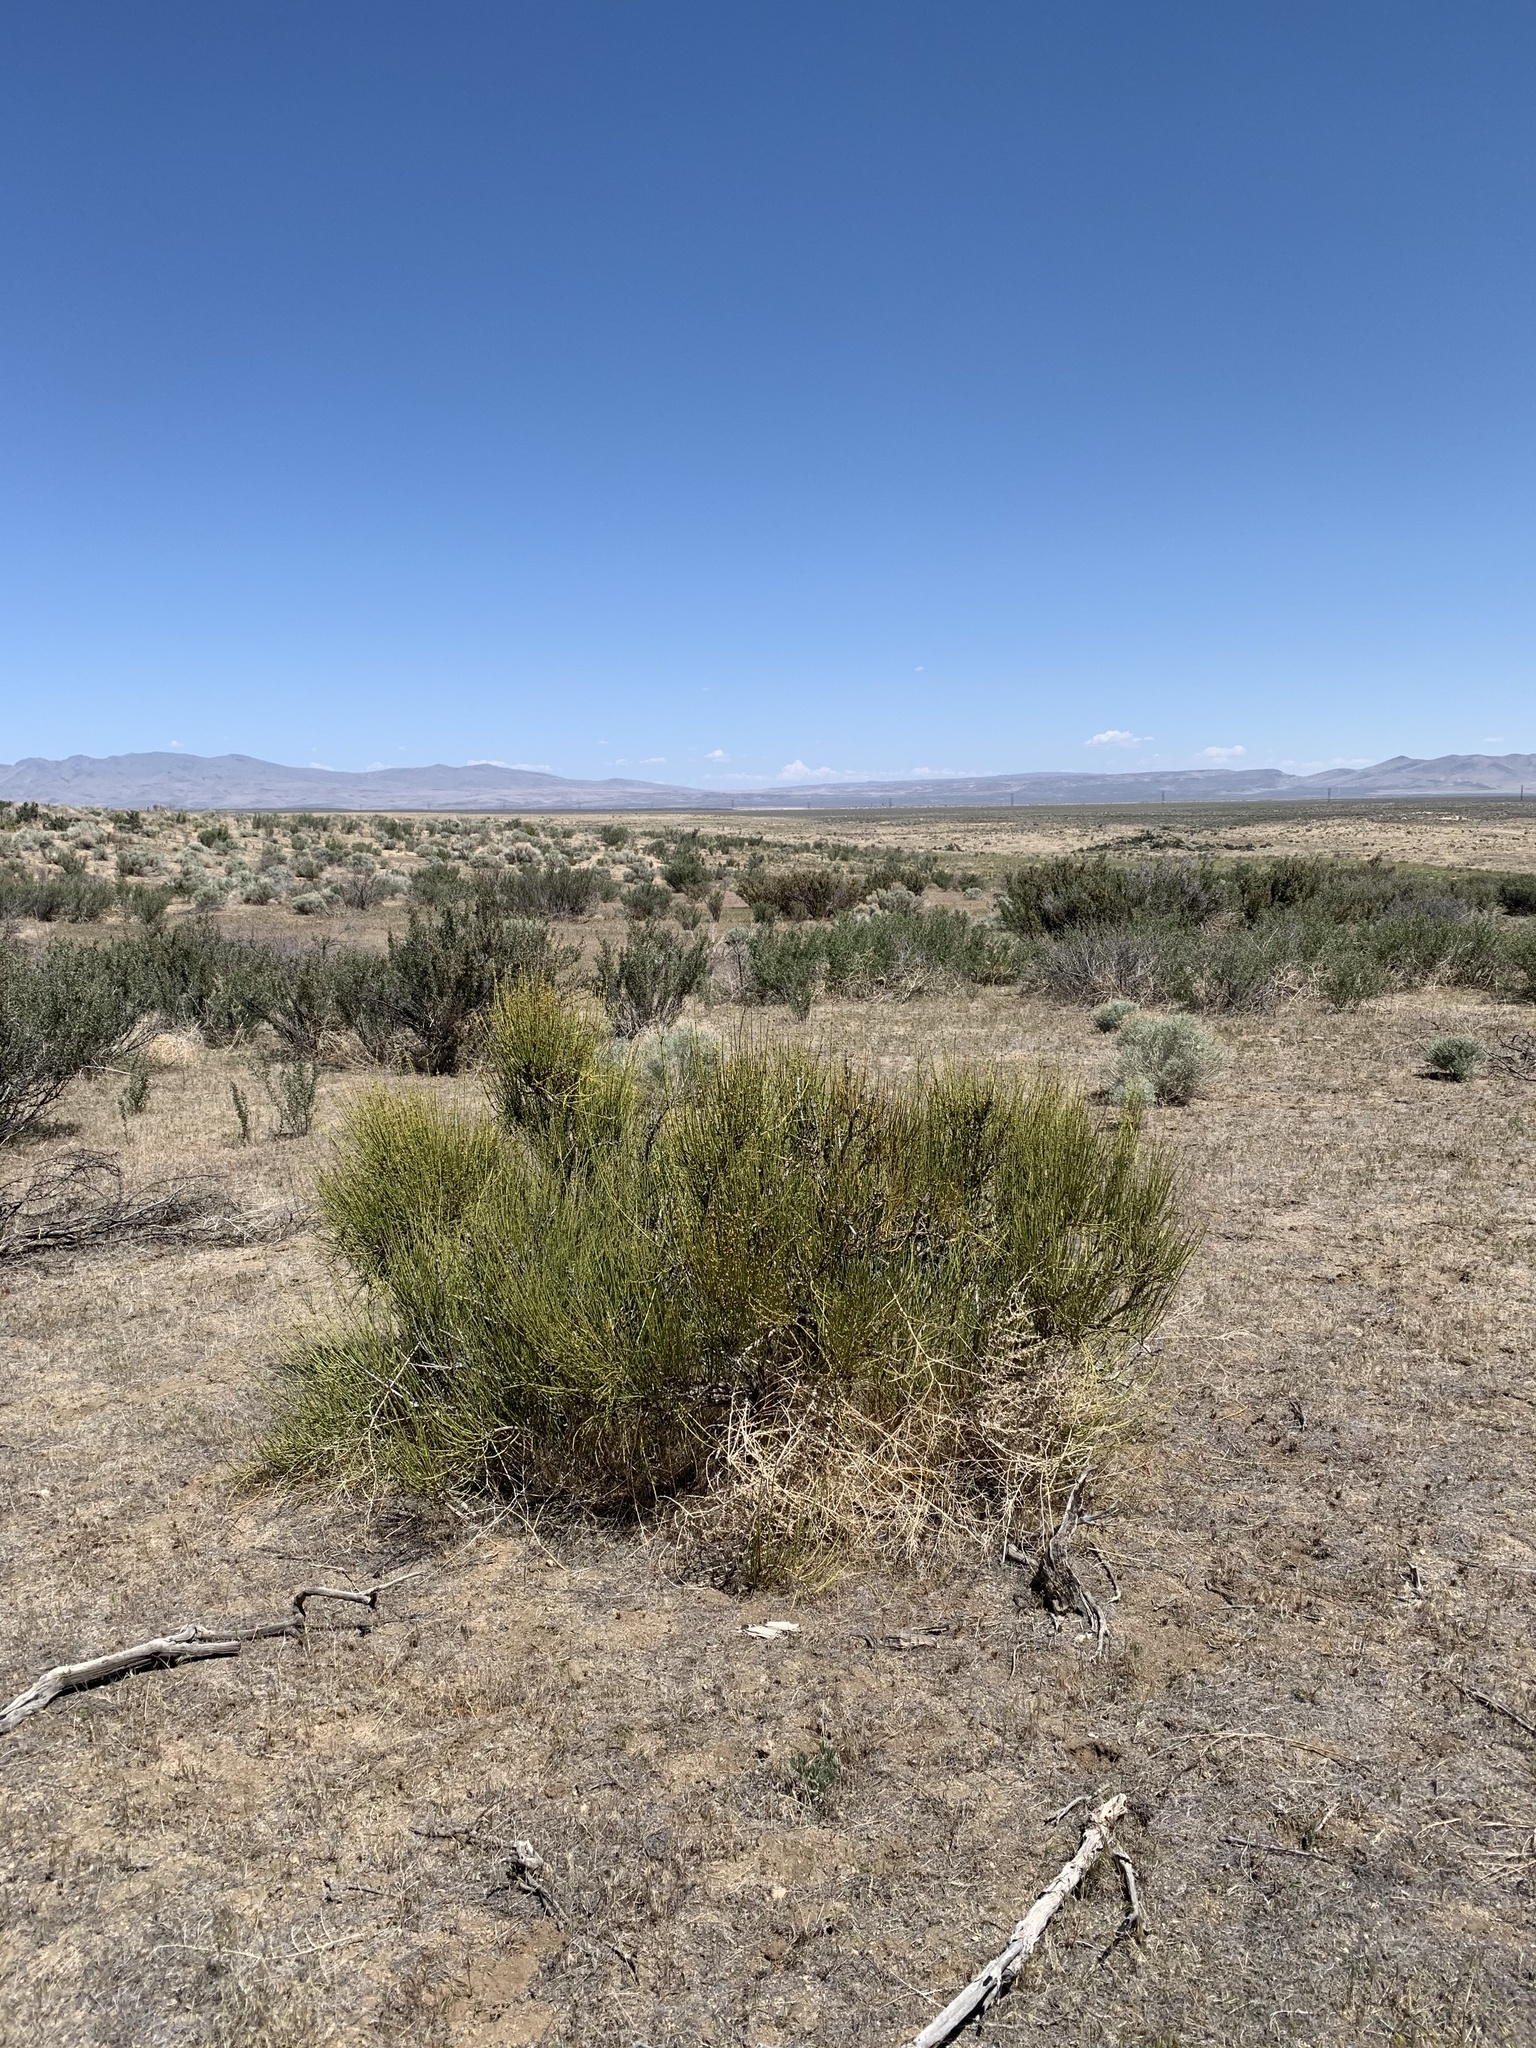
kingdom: Plantae
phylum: Tracheophyta
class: Gnetopsida
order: Ephedrales
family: Ephedraceae
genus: Ephedra
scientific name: Ephedra viridis
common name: Green ephedra
